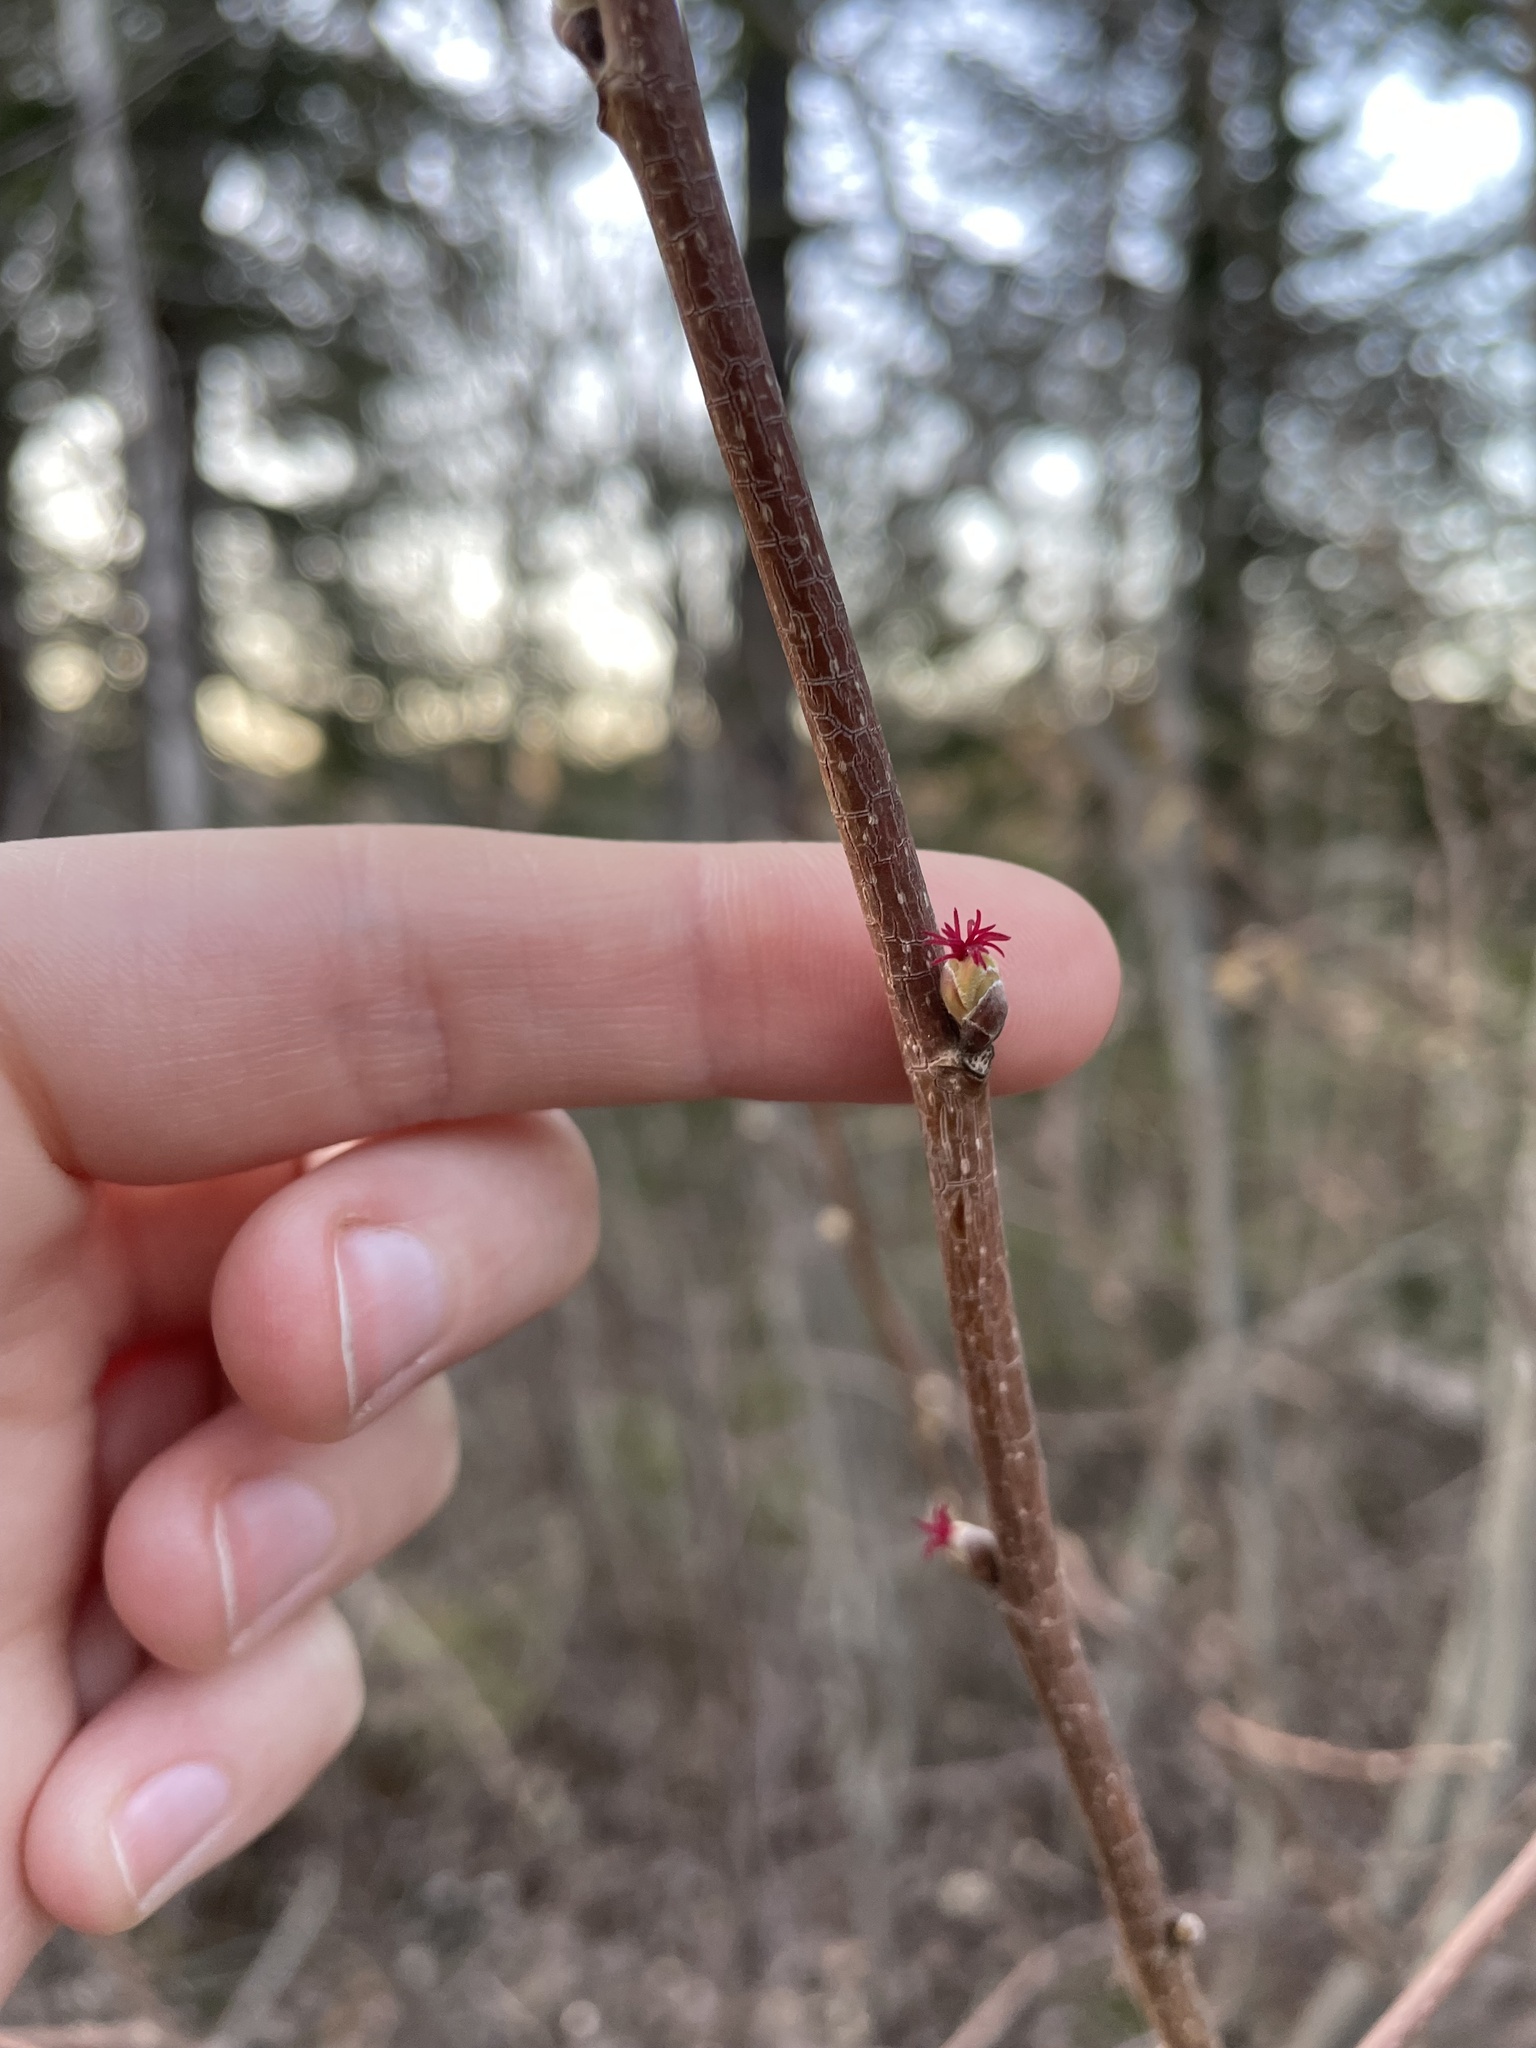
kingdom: Plantae
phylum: Tracheophyta
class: Magnoliopsida
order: Fagales
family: Betulaceae
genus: Corylus
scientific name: Corylus cornuta
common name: Beaked hazel
